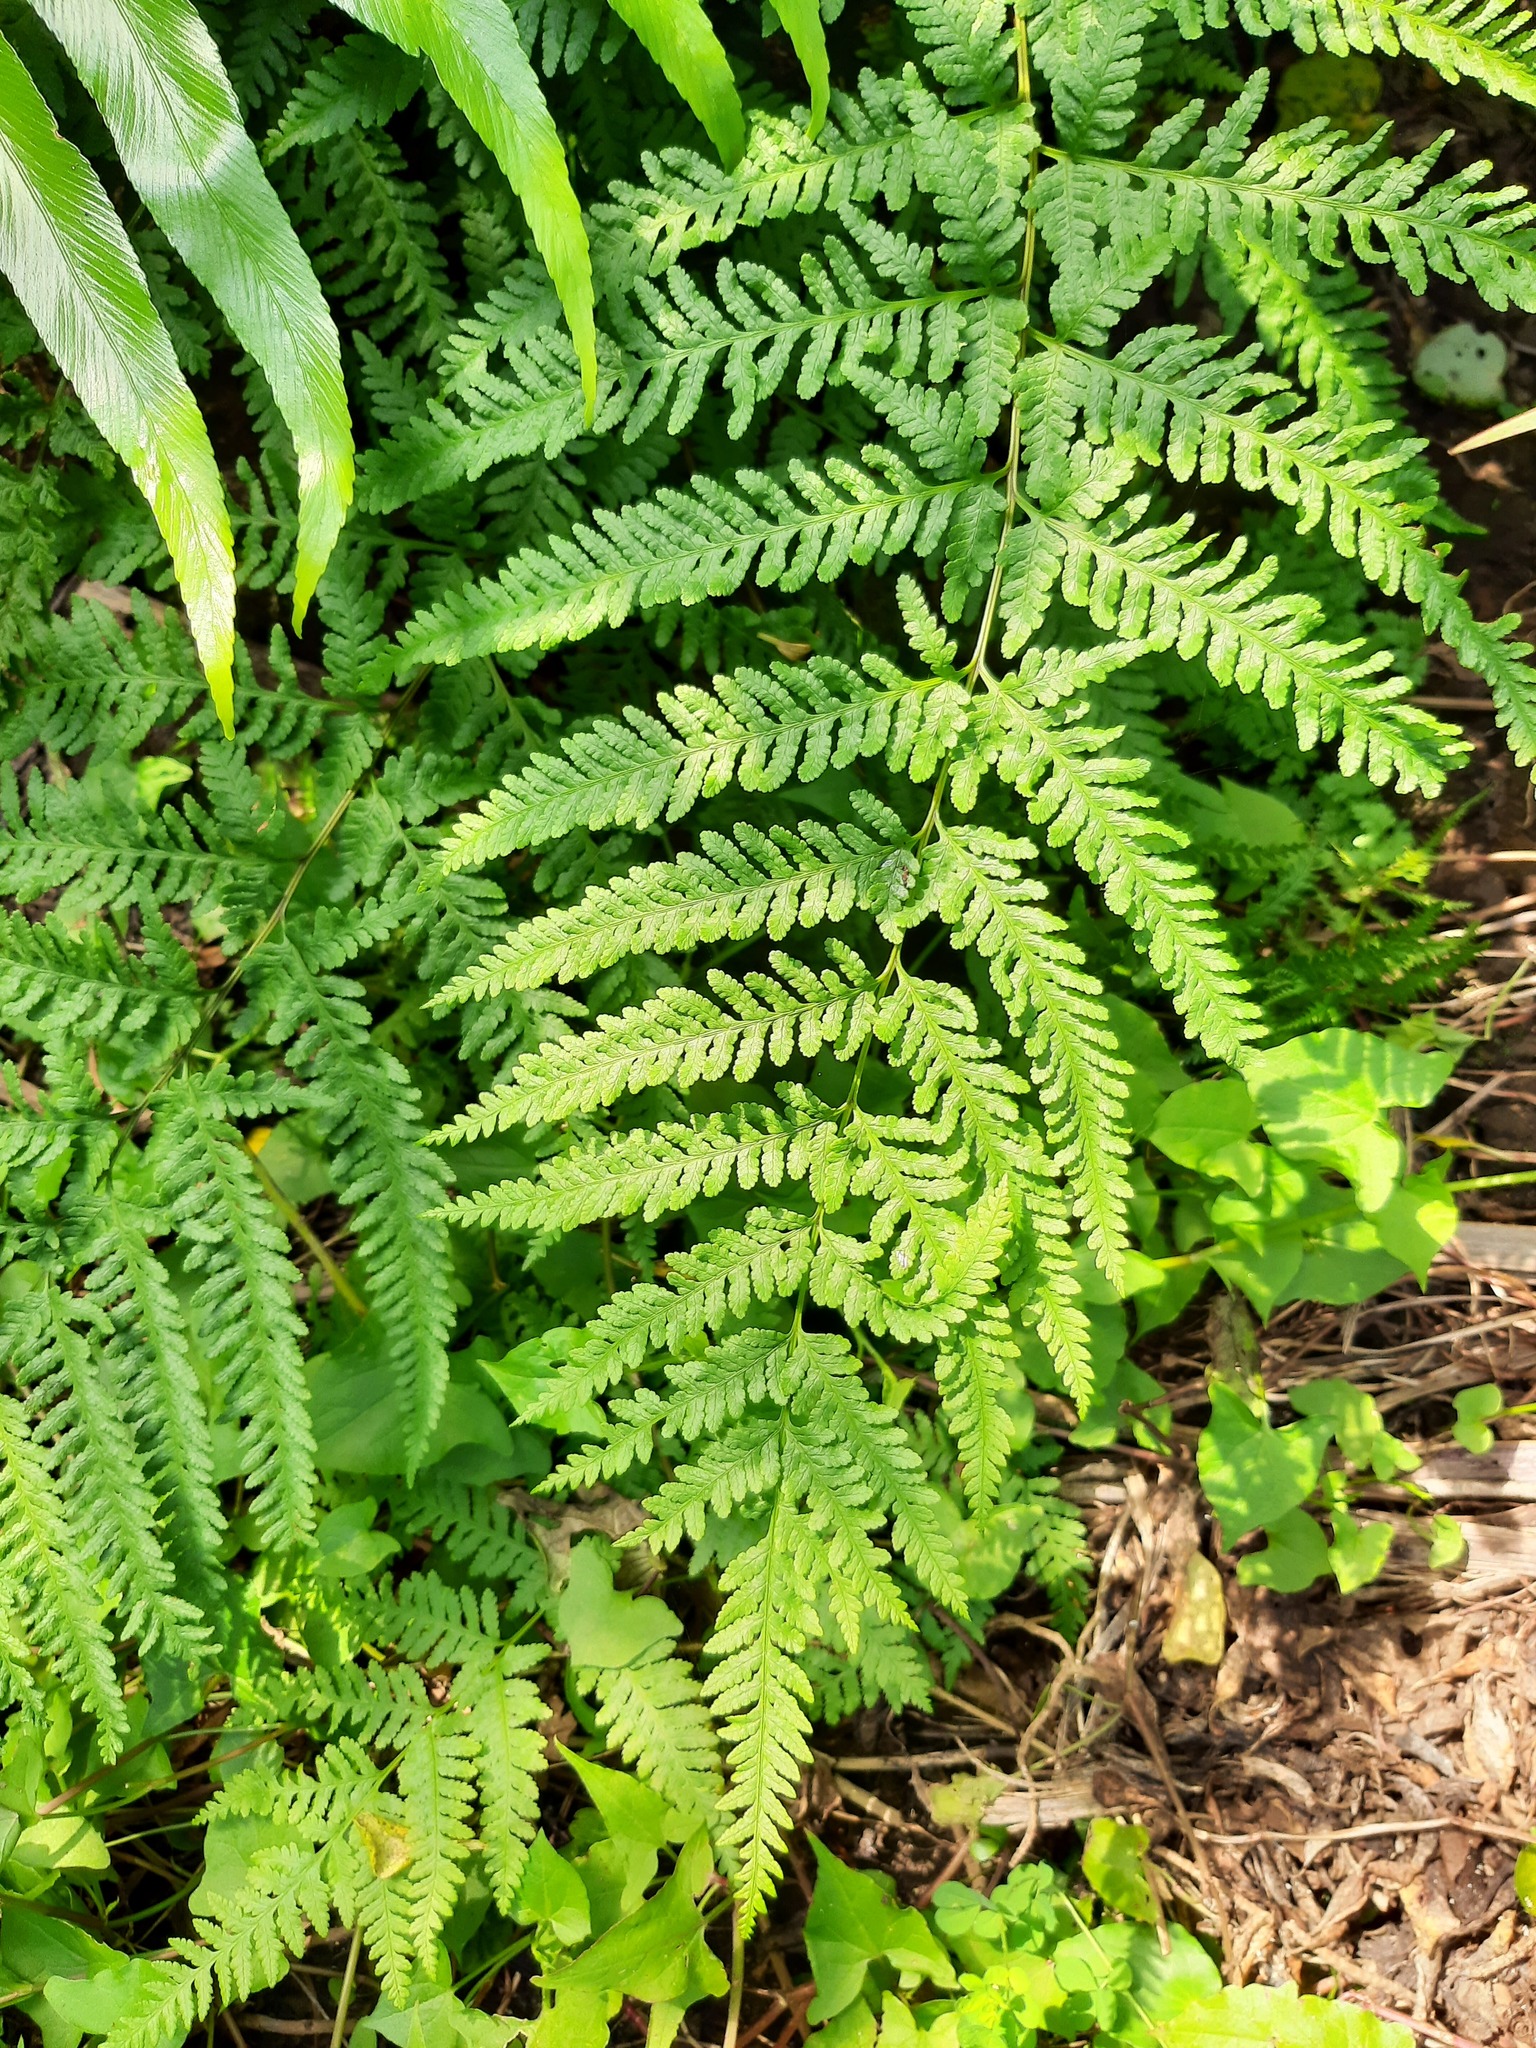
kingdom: Plantae
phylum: Tracheophyta
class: Polypodiopsida
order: Polypodiales
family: Pteridaceae
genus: Pteris
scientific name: Pteris tremula
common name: Australian brake
